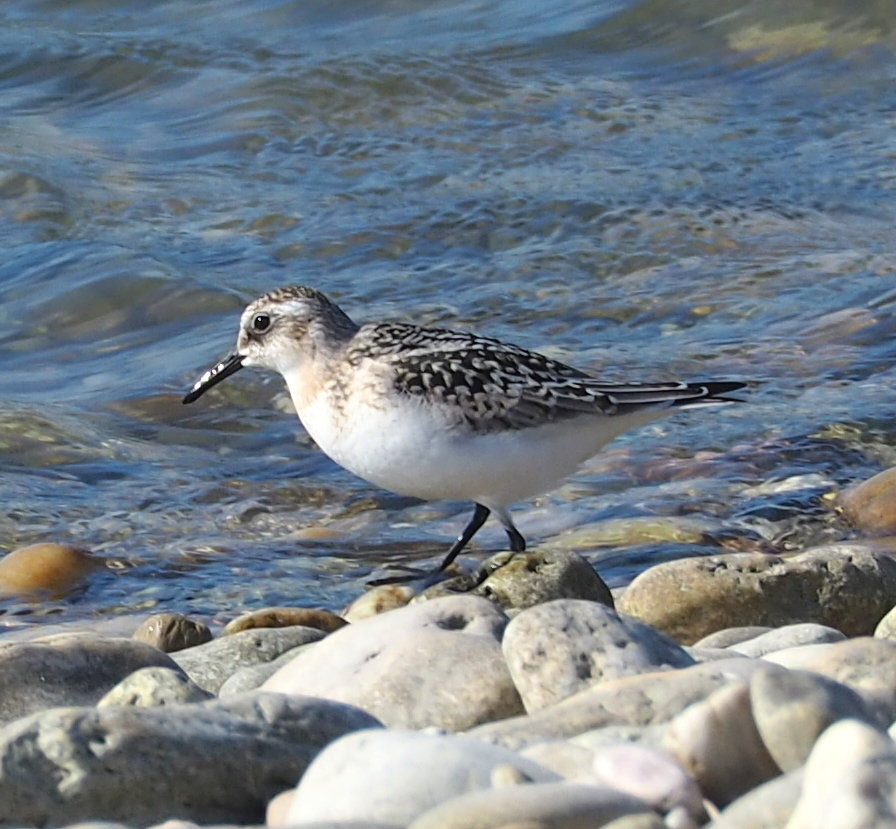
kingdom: Animalia
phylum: Chordata
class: Aves
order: Charadriiformes
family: Scolopacidae
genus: Calidris
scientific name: Calidris alba
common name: Sanderling
